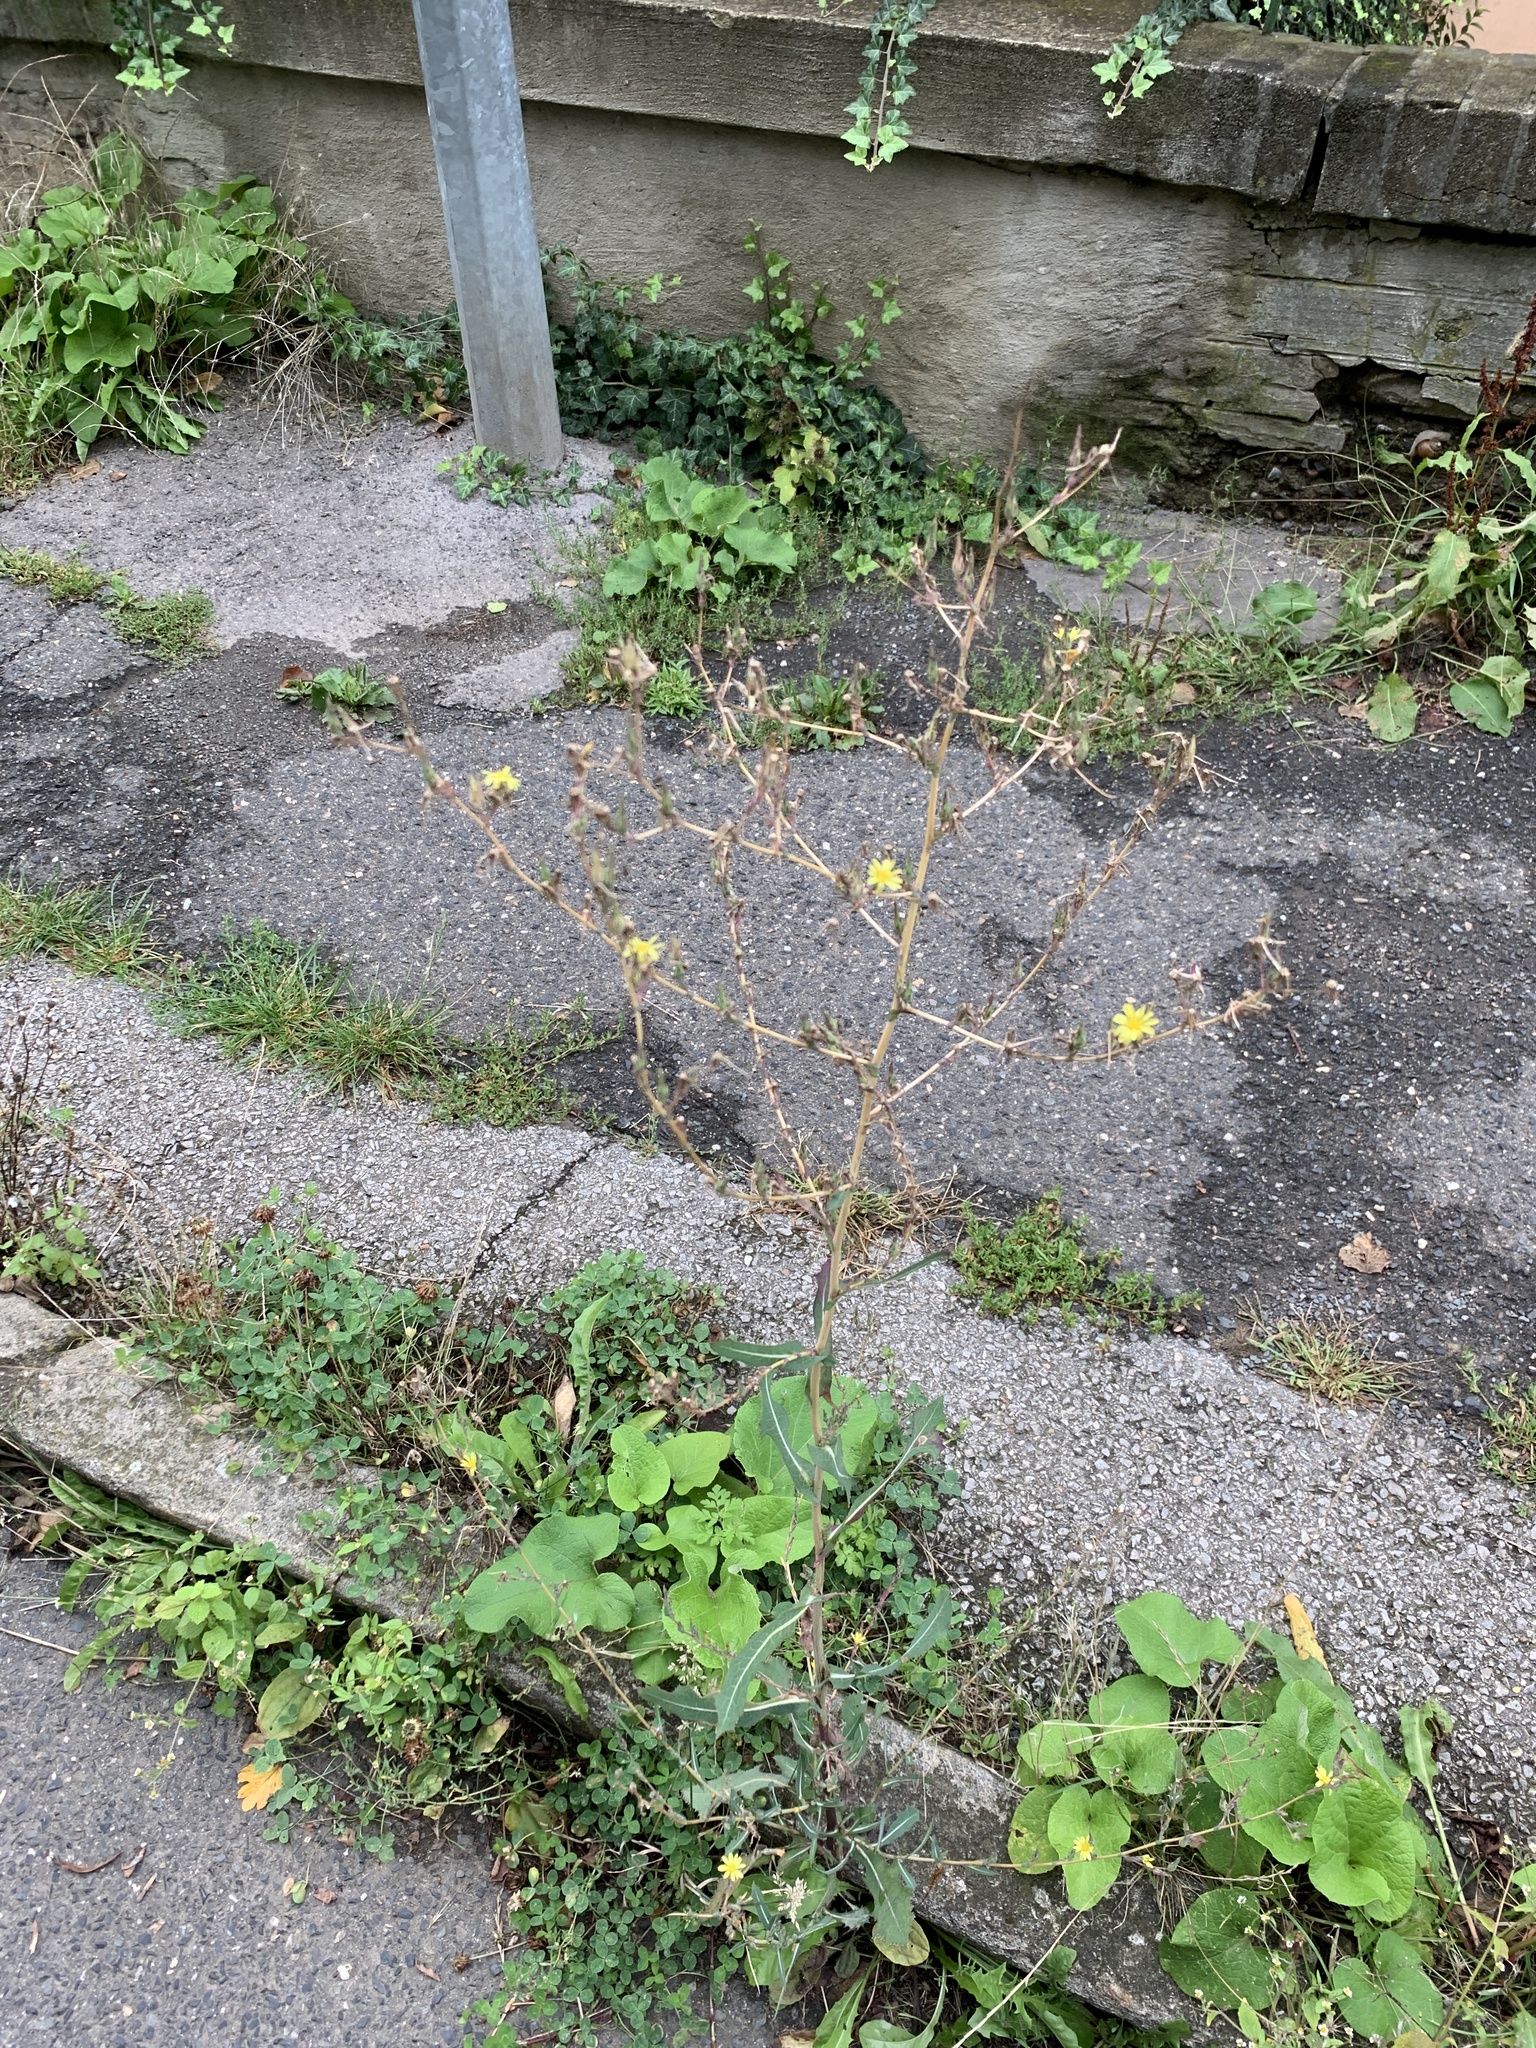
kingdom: Plantae
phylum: Tracheophyta
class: Magnoliopsida
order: Asterales
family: Asteraceae
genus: Lactuca
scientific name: Lactuca serriola
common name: Prickly lettuce
